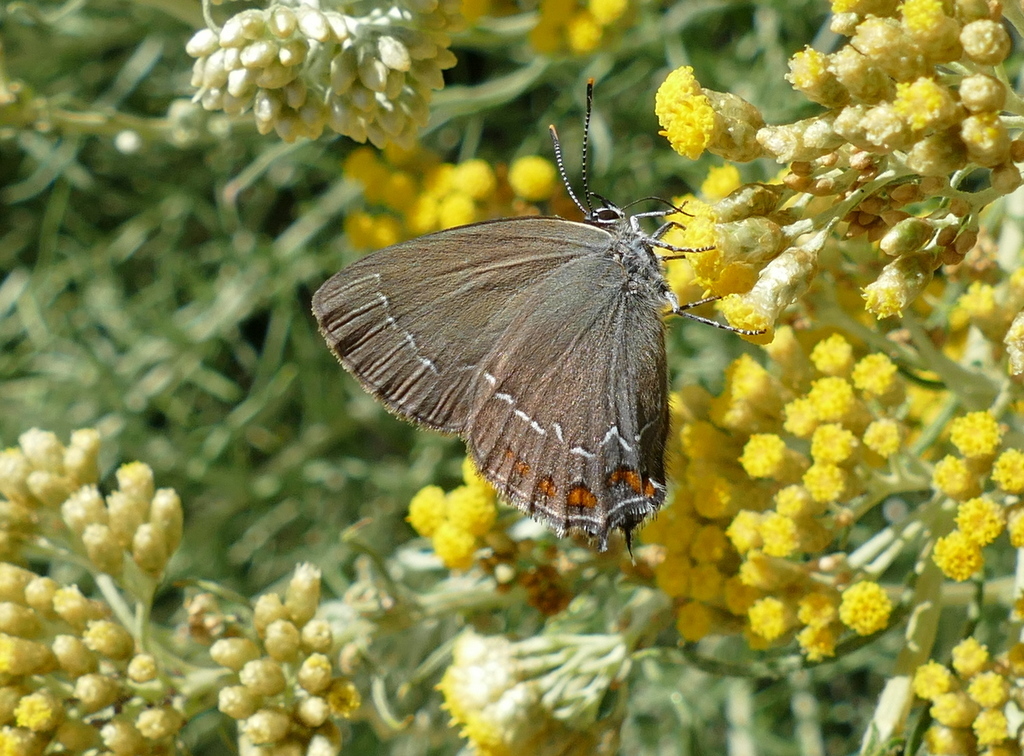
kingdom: Animalia
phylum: Arthropoda
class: Insecta
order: Lepidoptera
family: Lycaenidae
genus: Nordmannia
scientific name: Nordmannia ilicis
